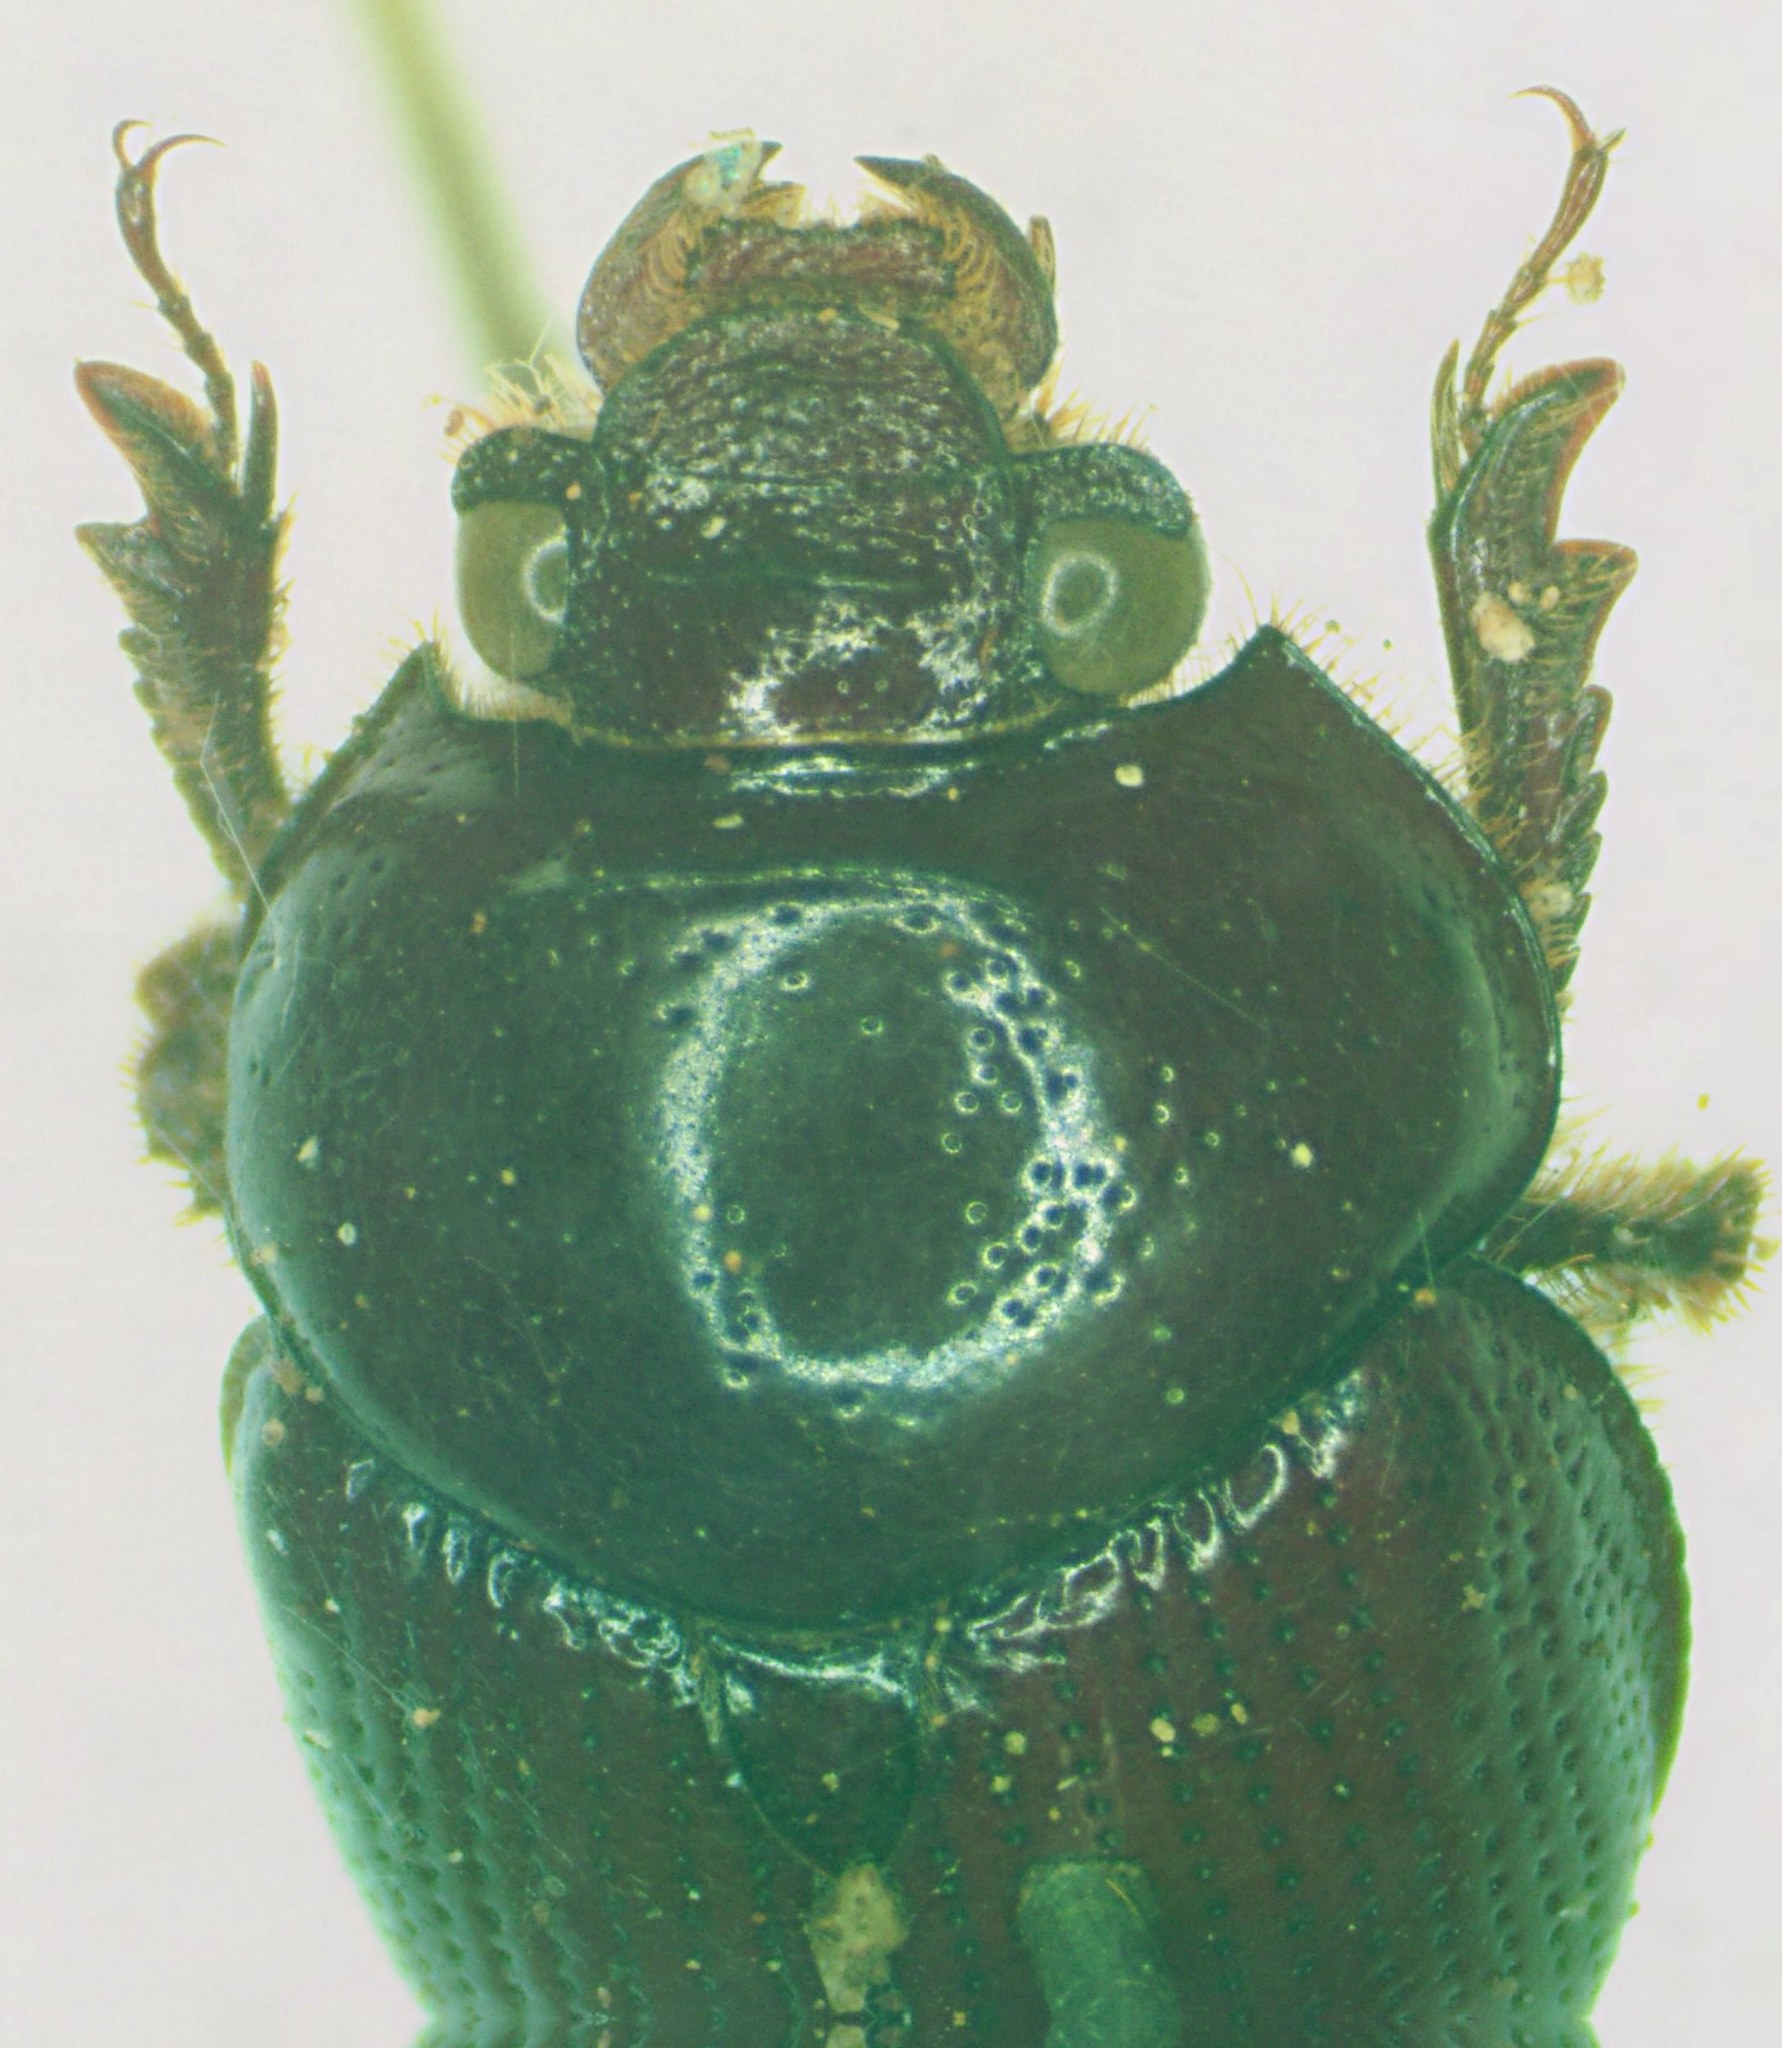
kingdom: Animalia
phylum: Arthropoda
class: Insecta
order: Coleoptera
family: Geotrupidae
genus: Bolbelasmus
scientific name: Bolbelasmus arcuatus
